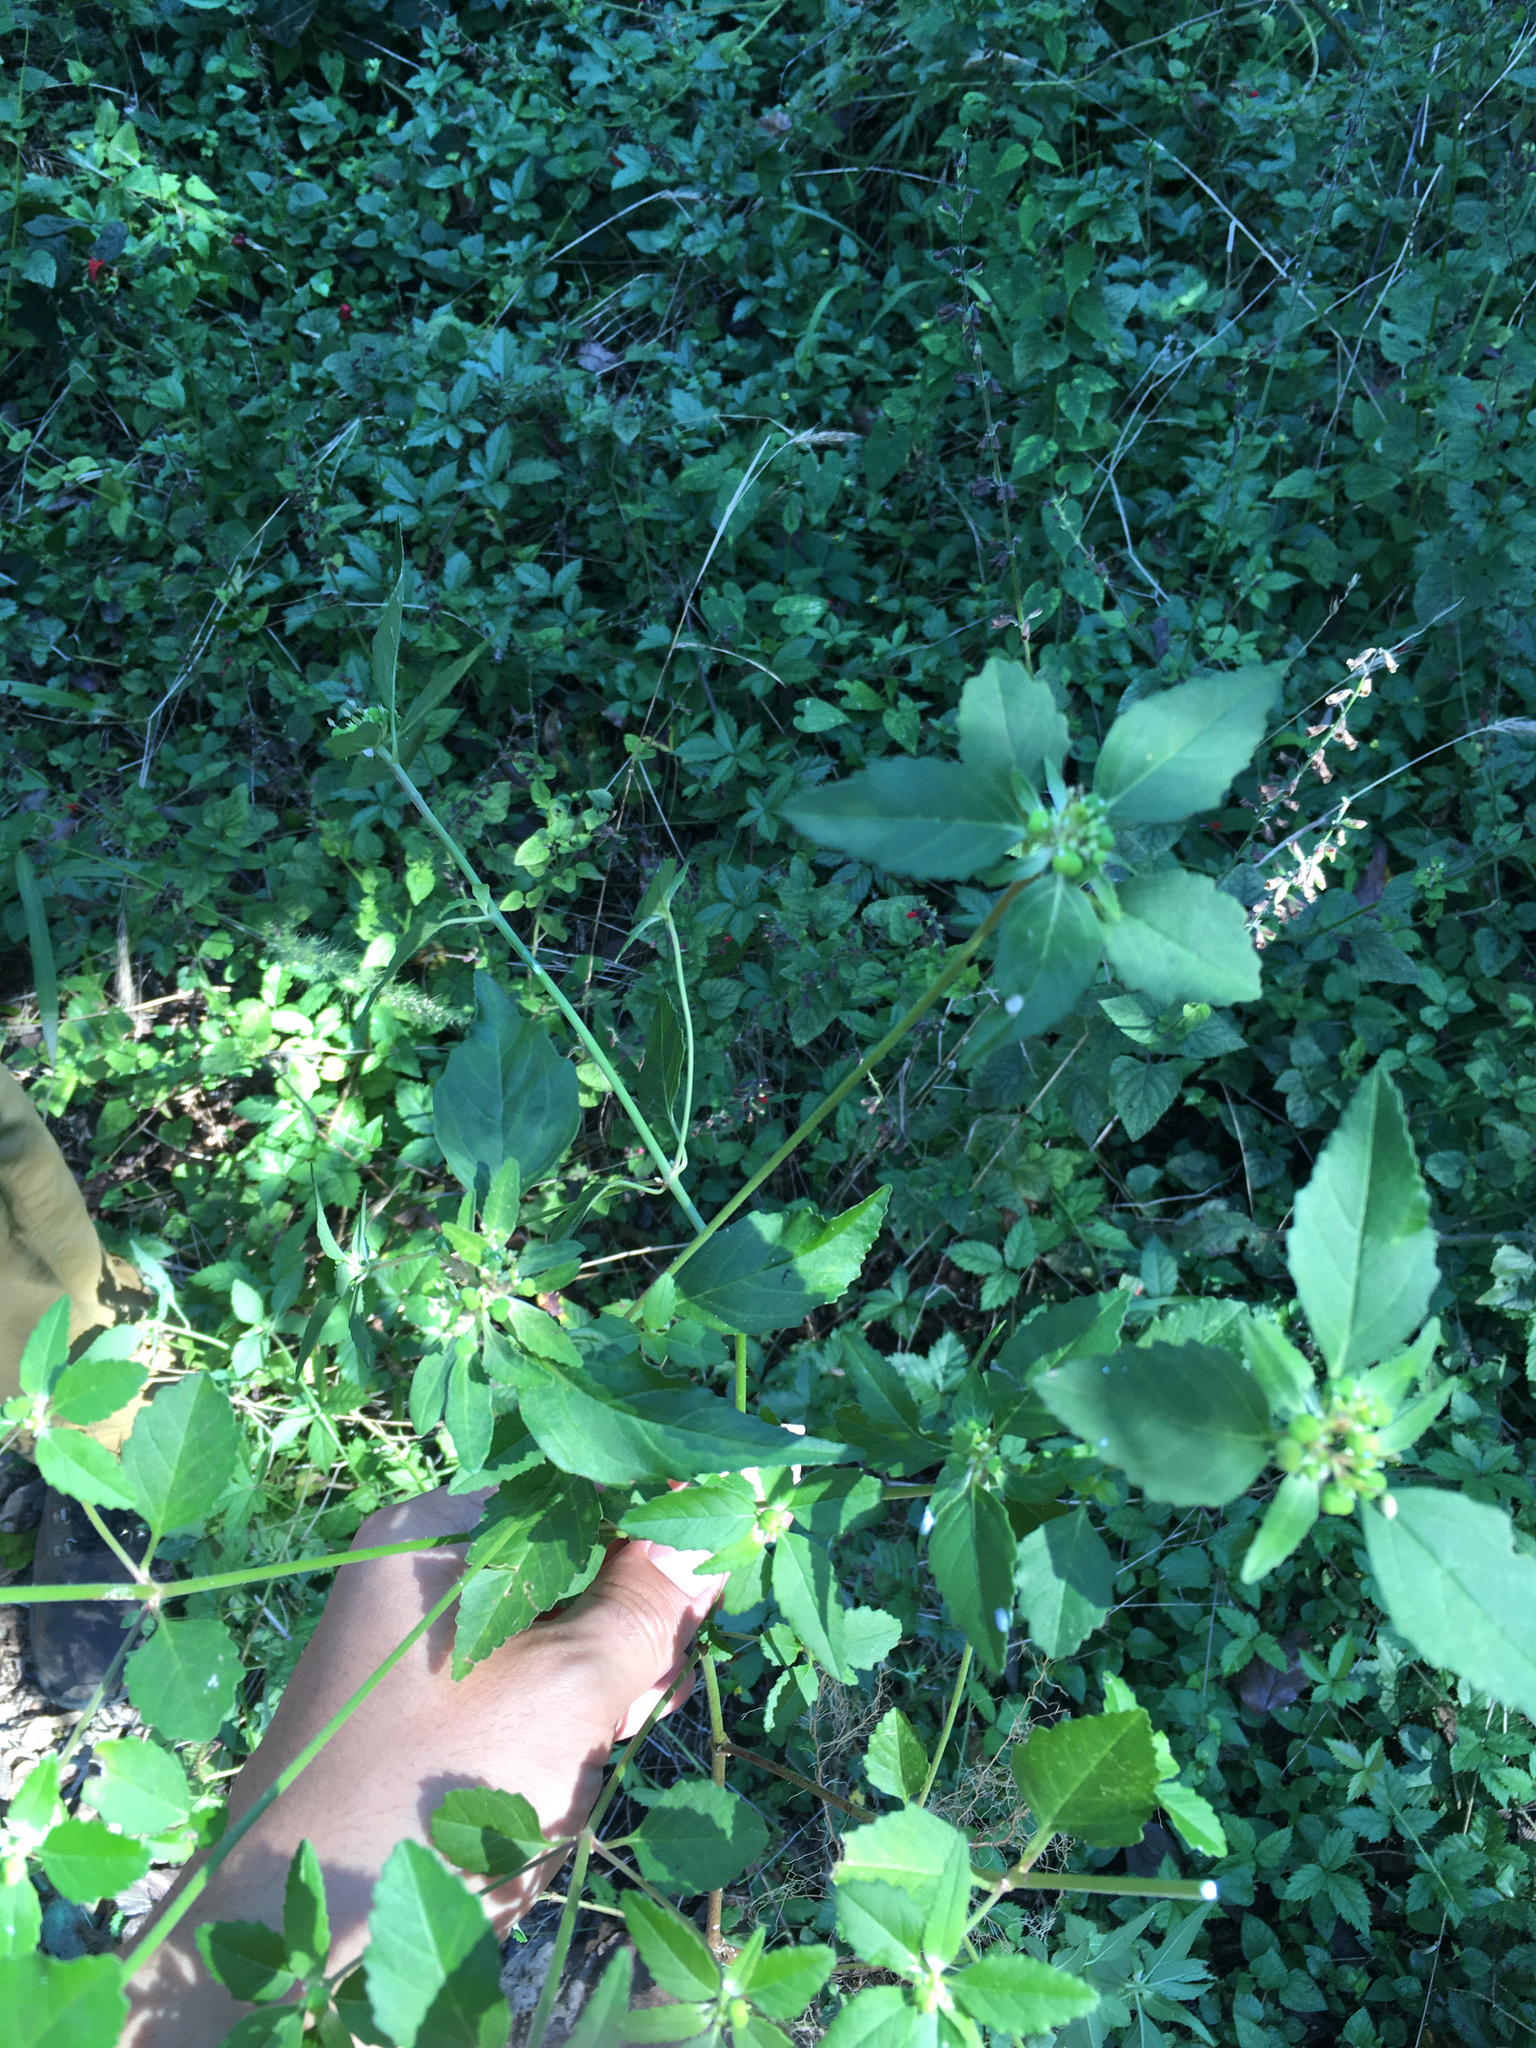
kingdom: Plantae
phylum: Tracheophyta
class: Magnoliopsida
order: Malpighiales
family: Euphorbiaceae
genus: Euphorbia
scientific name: Euphorbia dentata
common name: Dentate spurge
